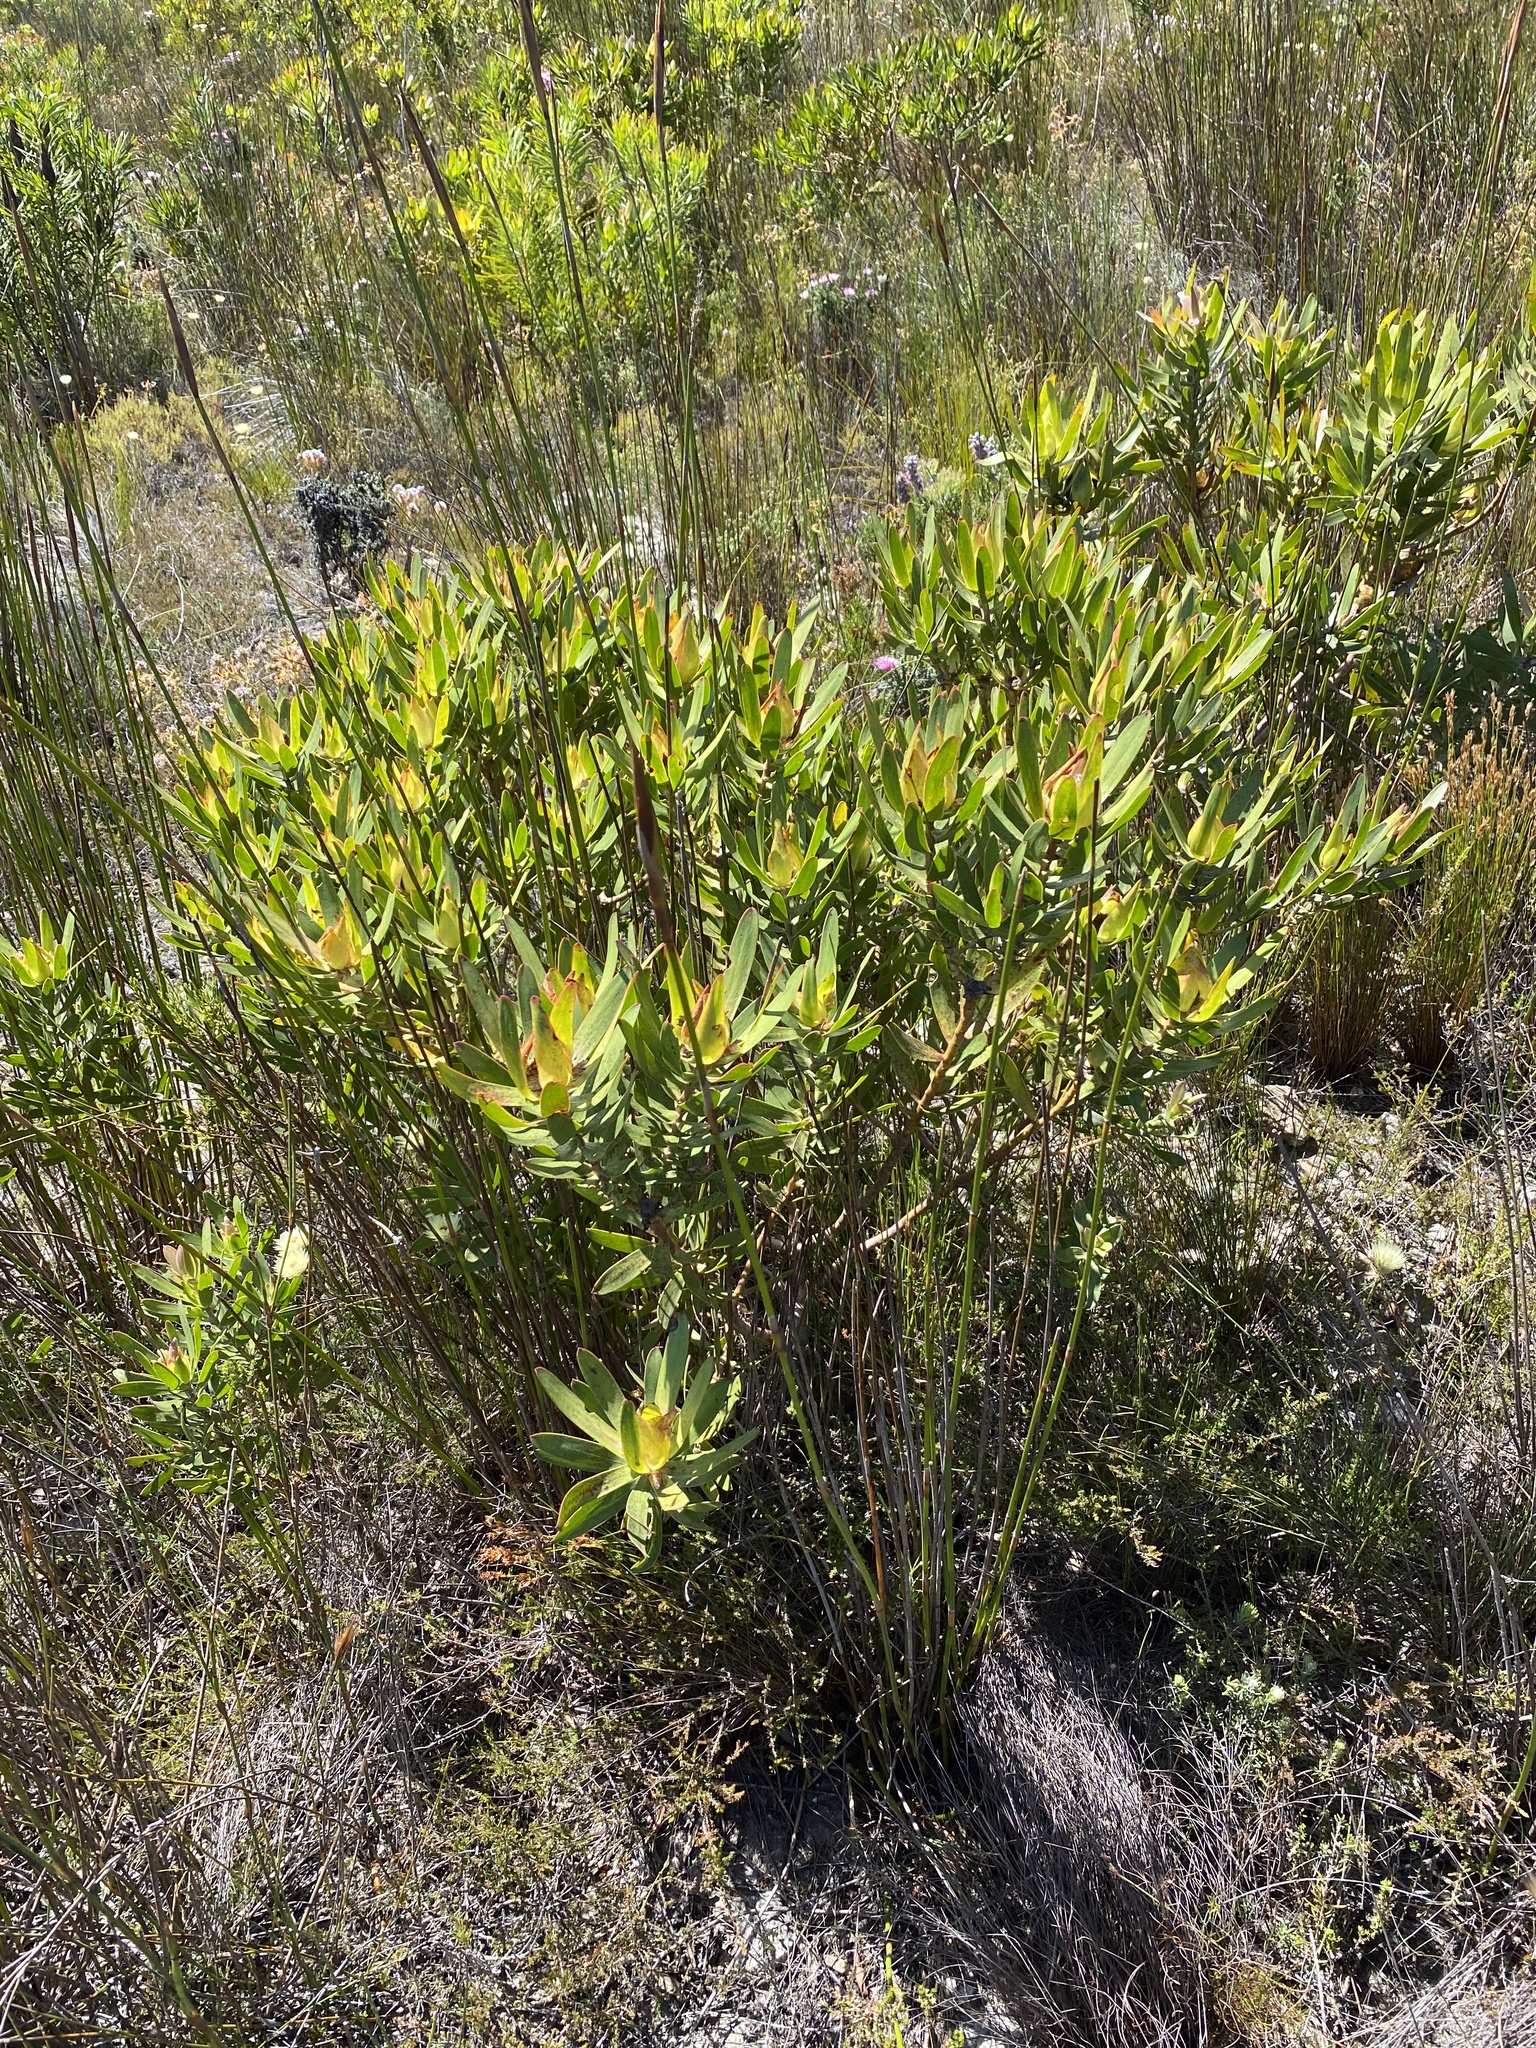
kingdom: Plantae
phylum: Tracheophyta
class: Magnoliopsida
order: Proteales
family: Proteaceae
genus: Leucadendron
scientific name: Leucadendron laureolum
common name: Golden sunshinebush
